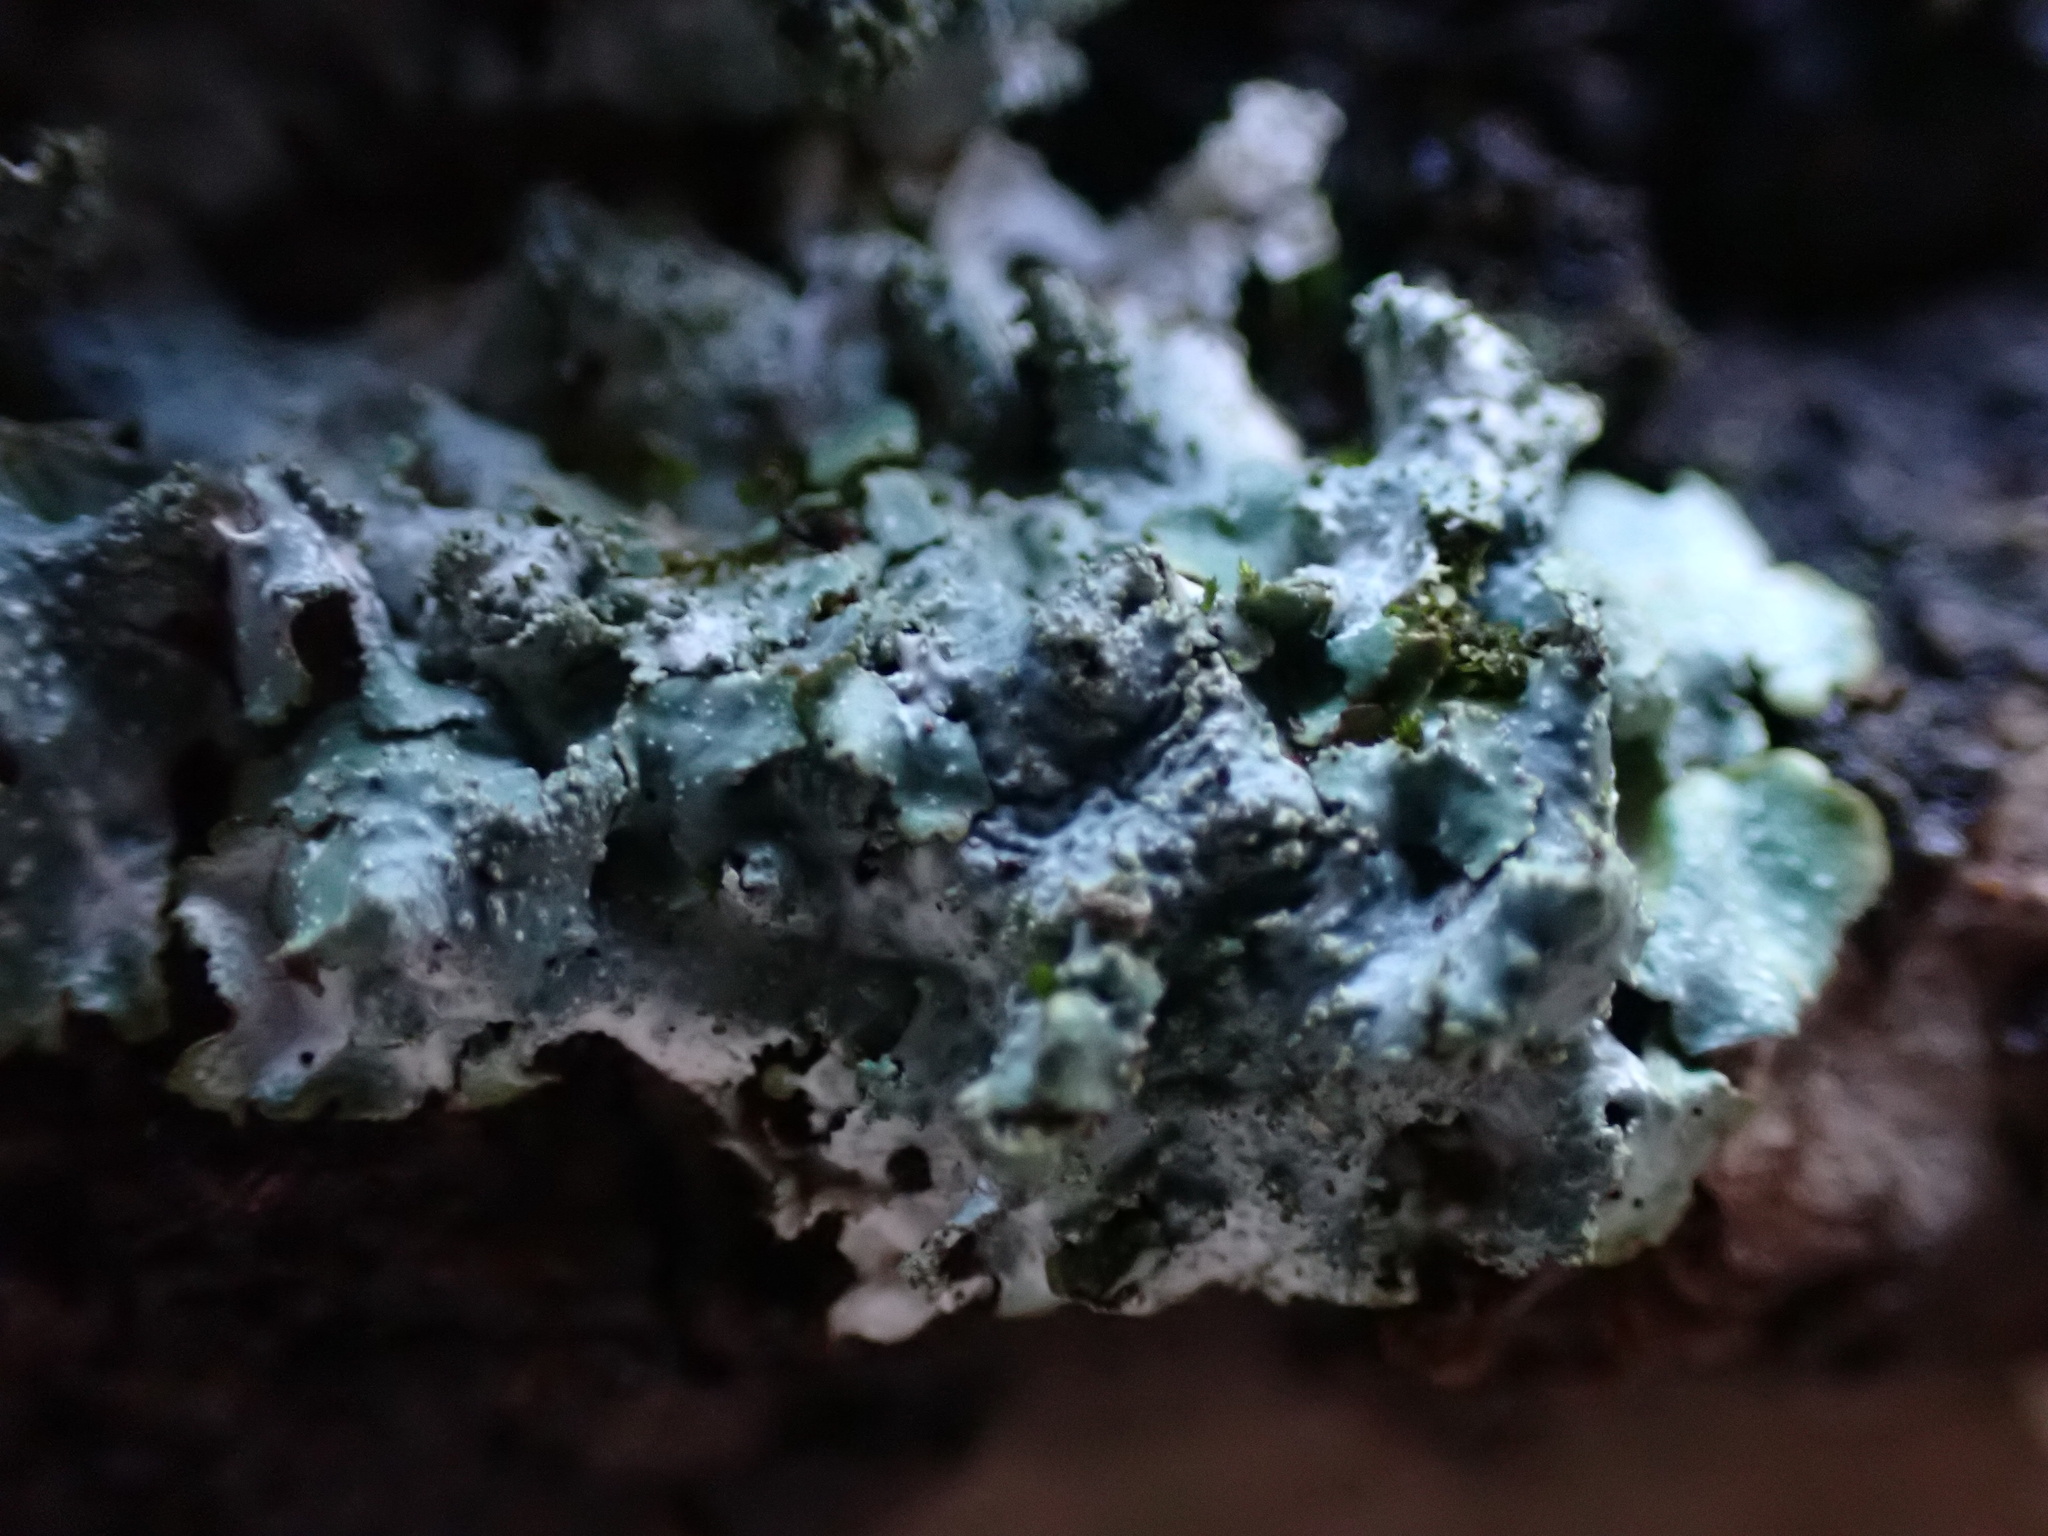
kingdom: Fungi
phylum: Ascomycota
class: Lecanoromycetes
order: Lecanorales
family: Parmeliaceae
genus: Punctelia
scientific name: Punctelia rudecta
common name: Rough speckled shield lichen
